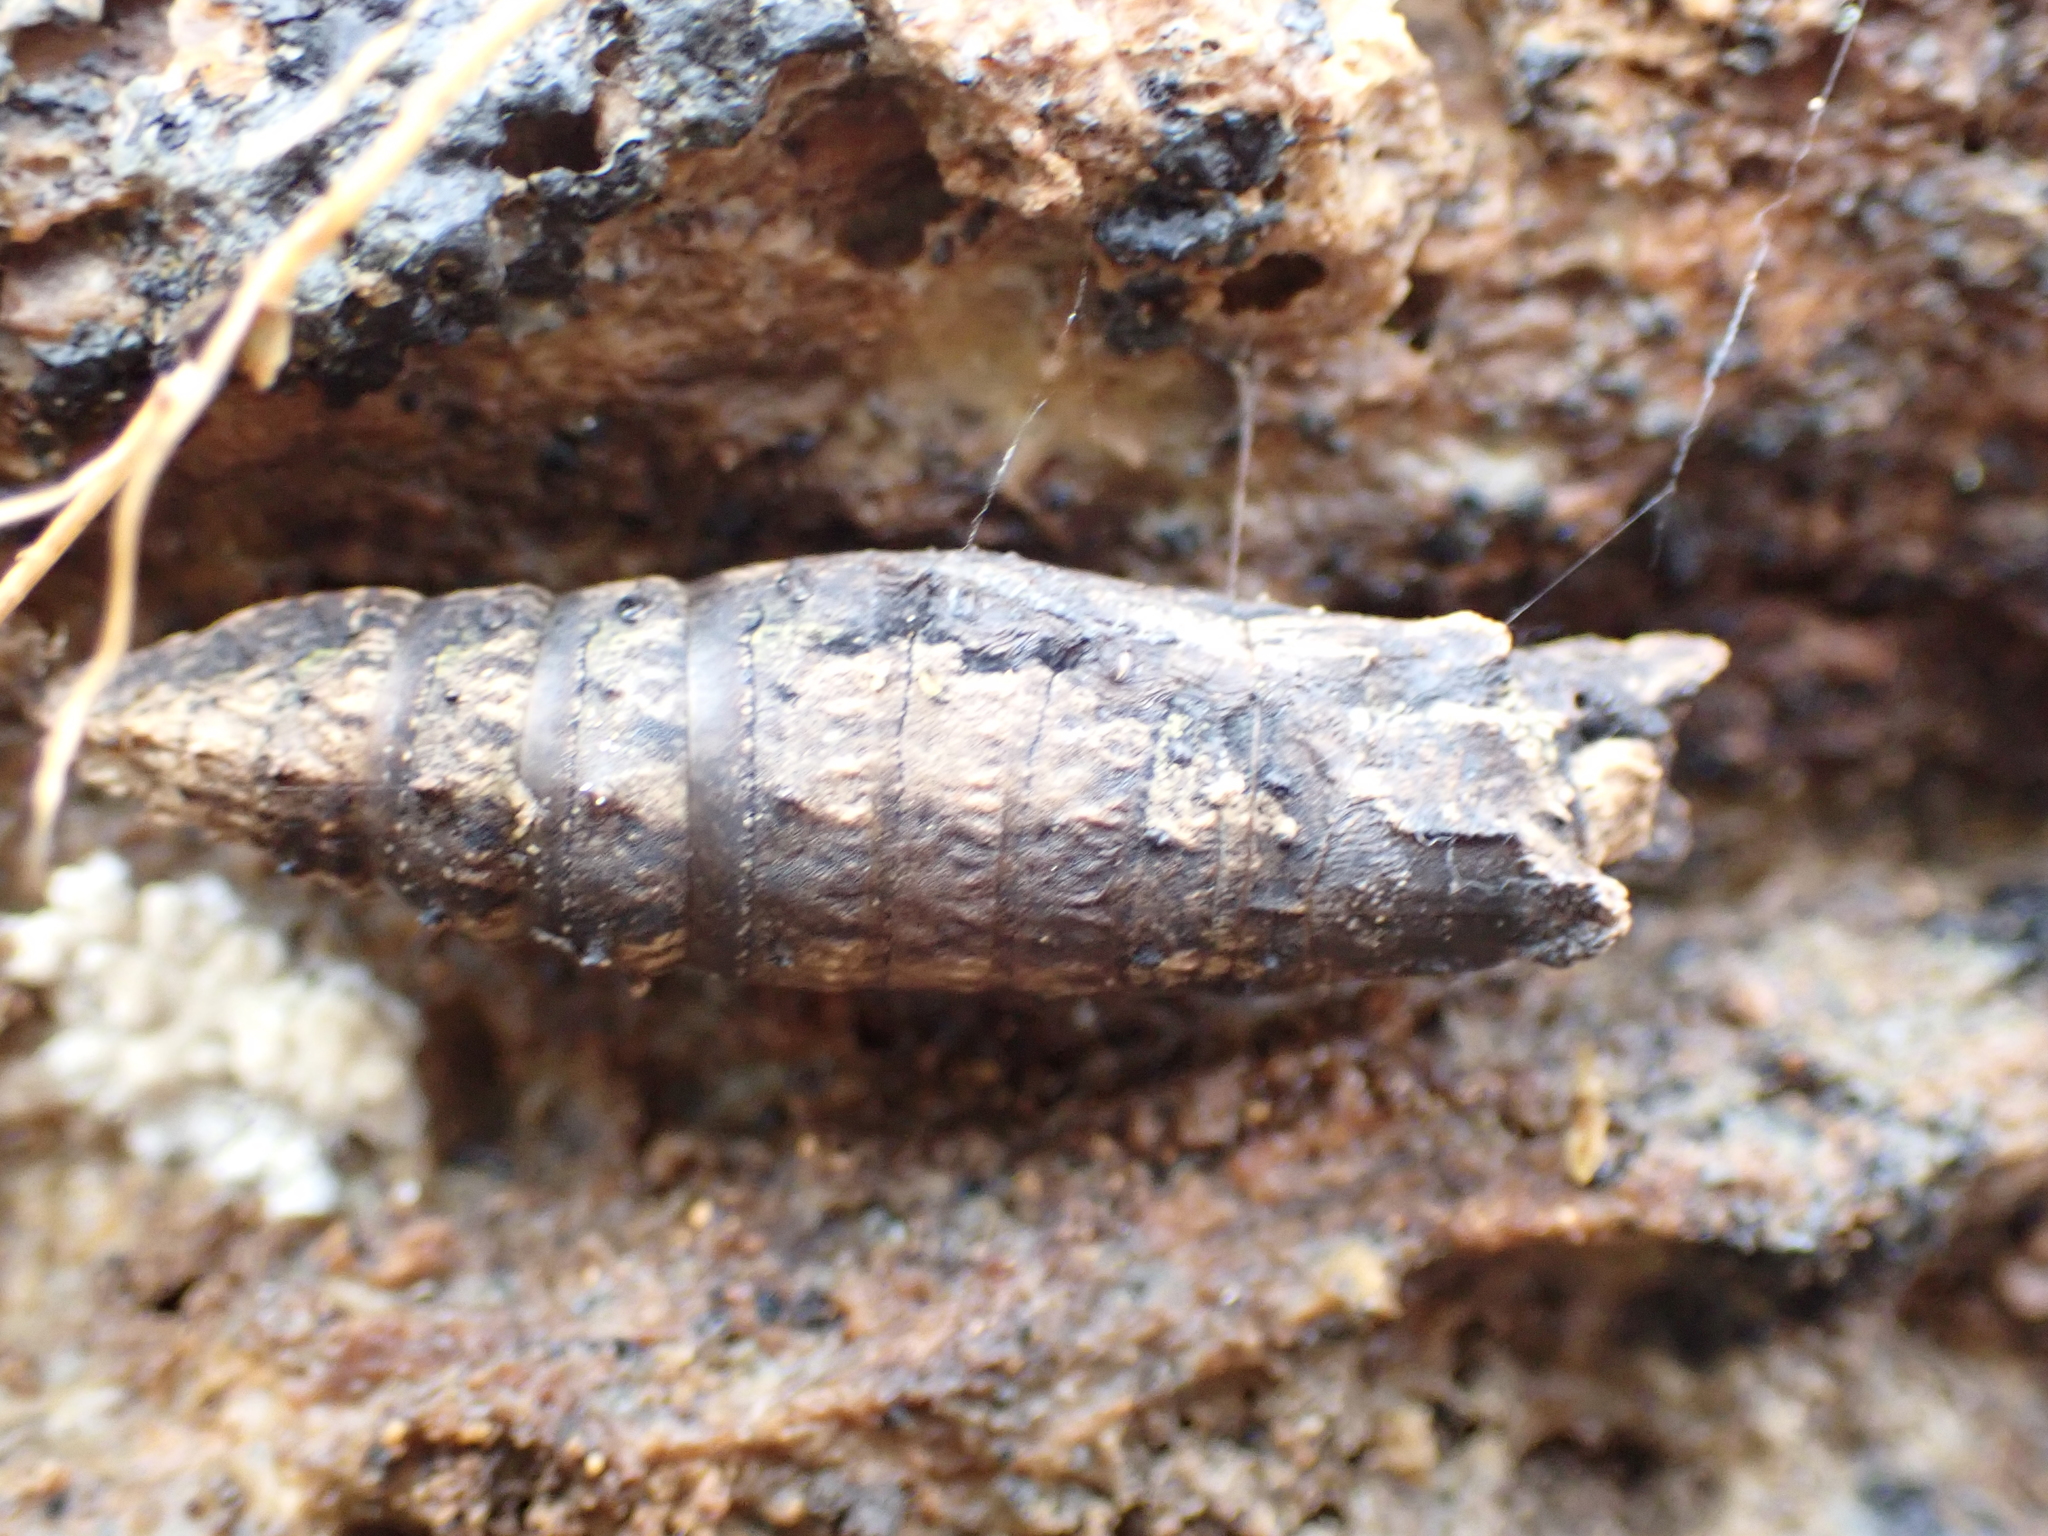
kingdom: Animalia
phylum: Arthropoda
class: Insecta
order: Lepidoptera
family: Papilionidae
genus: Papilio
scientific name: Papilio glaucus
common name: Tiger swallowtail
